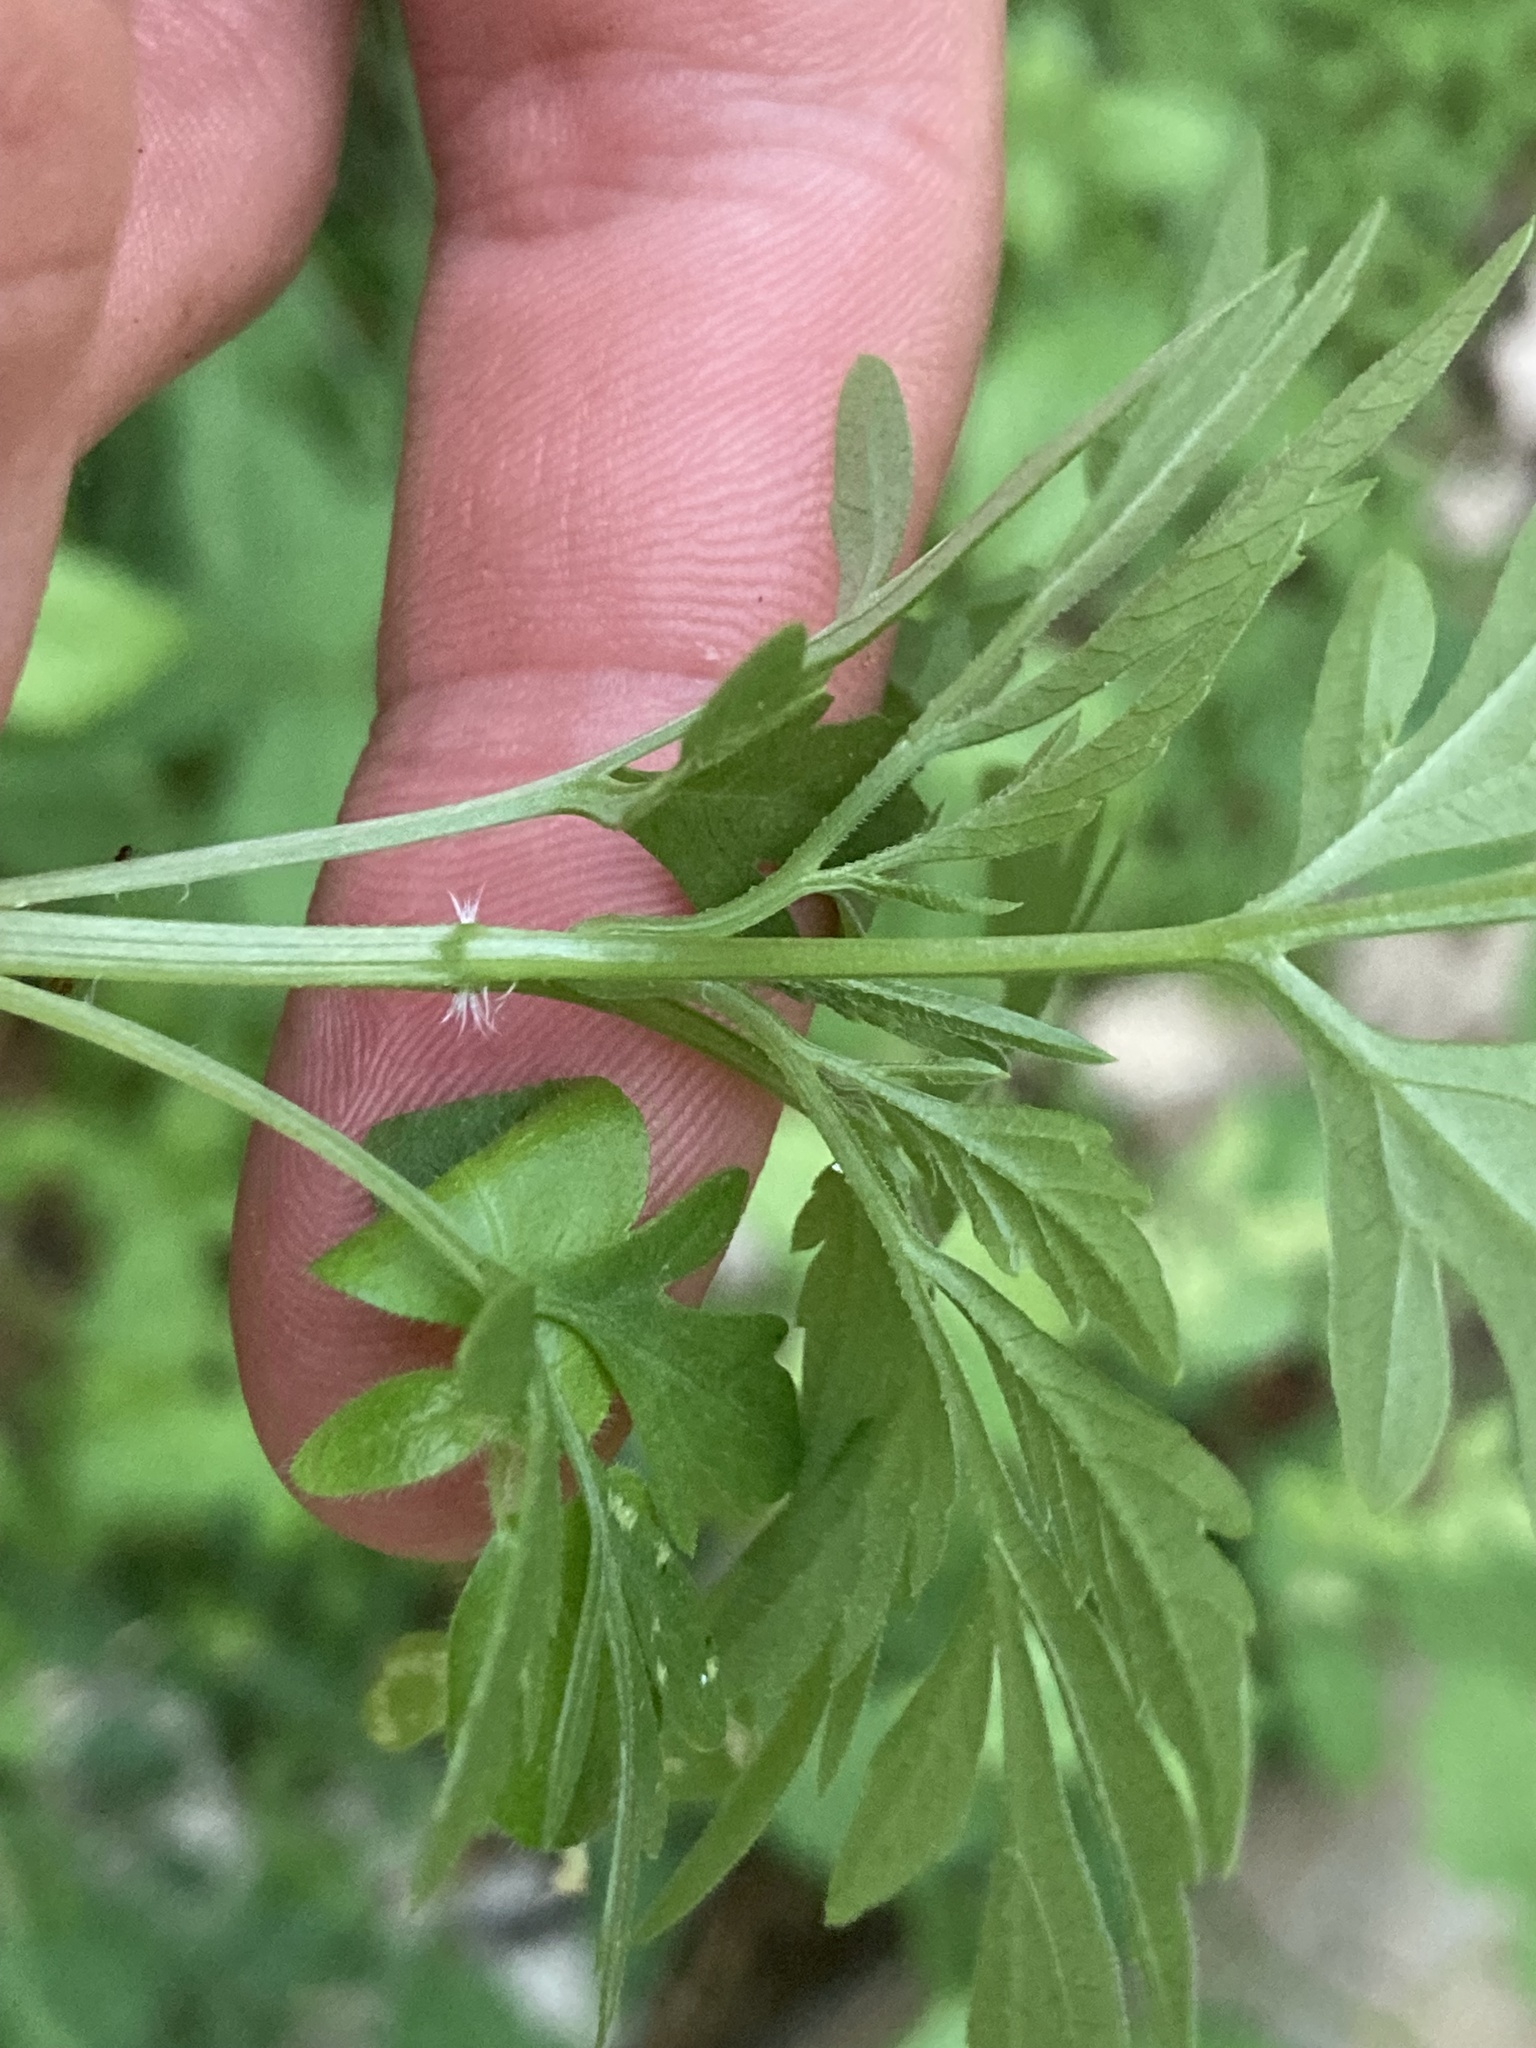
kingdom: Plantae
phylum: Tracheophyta
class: Magnoliopsida
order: Asterales
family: Asteraceae
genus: Bidens
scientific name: Bidens subalternans
